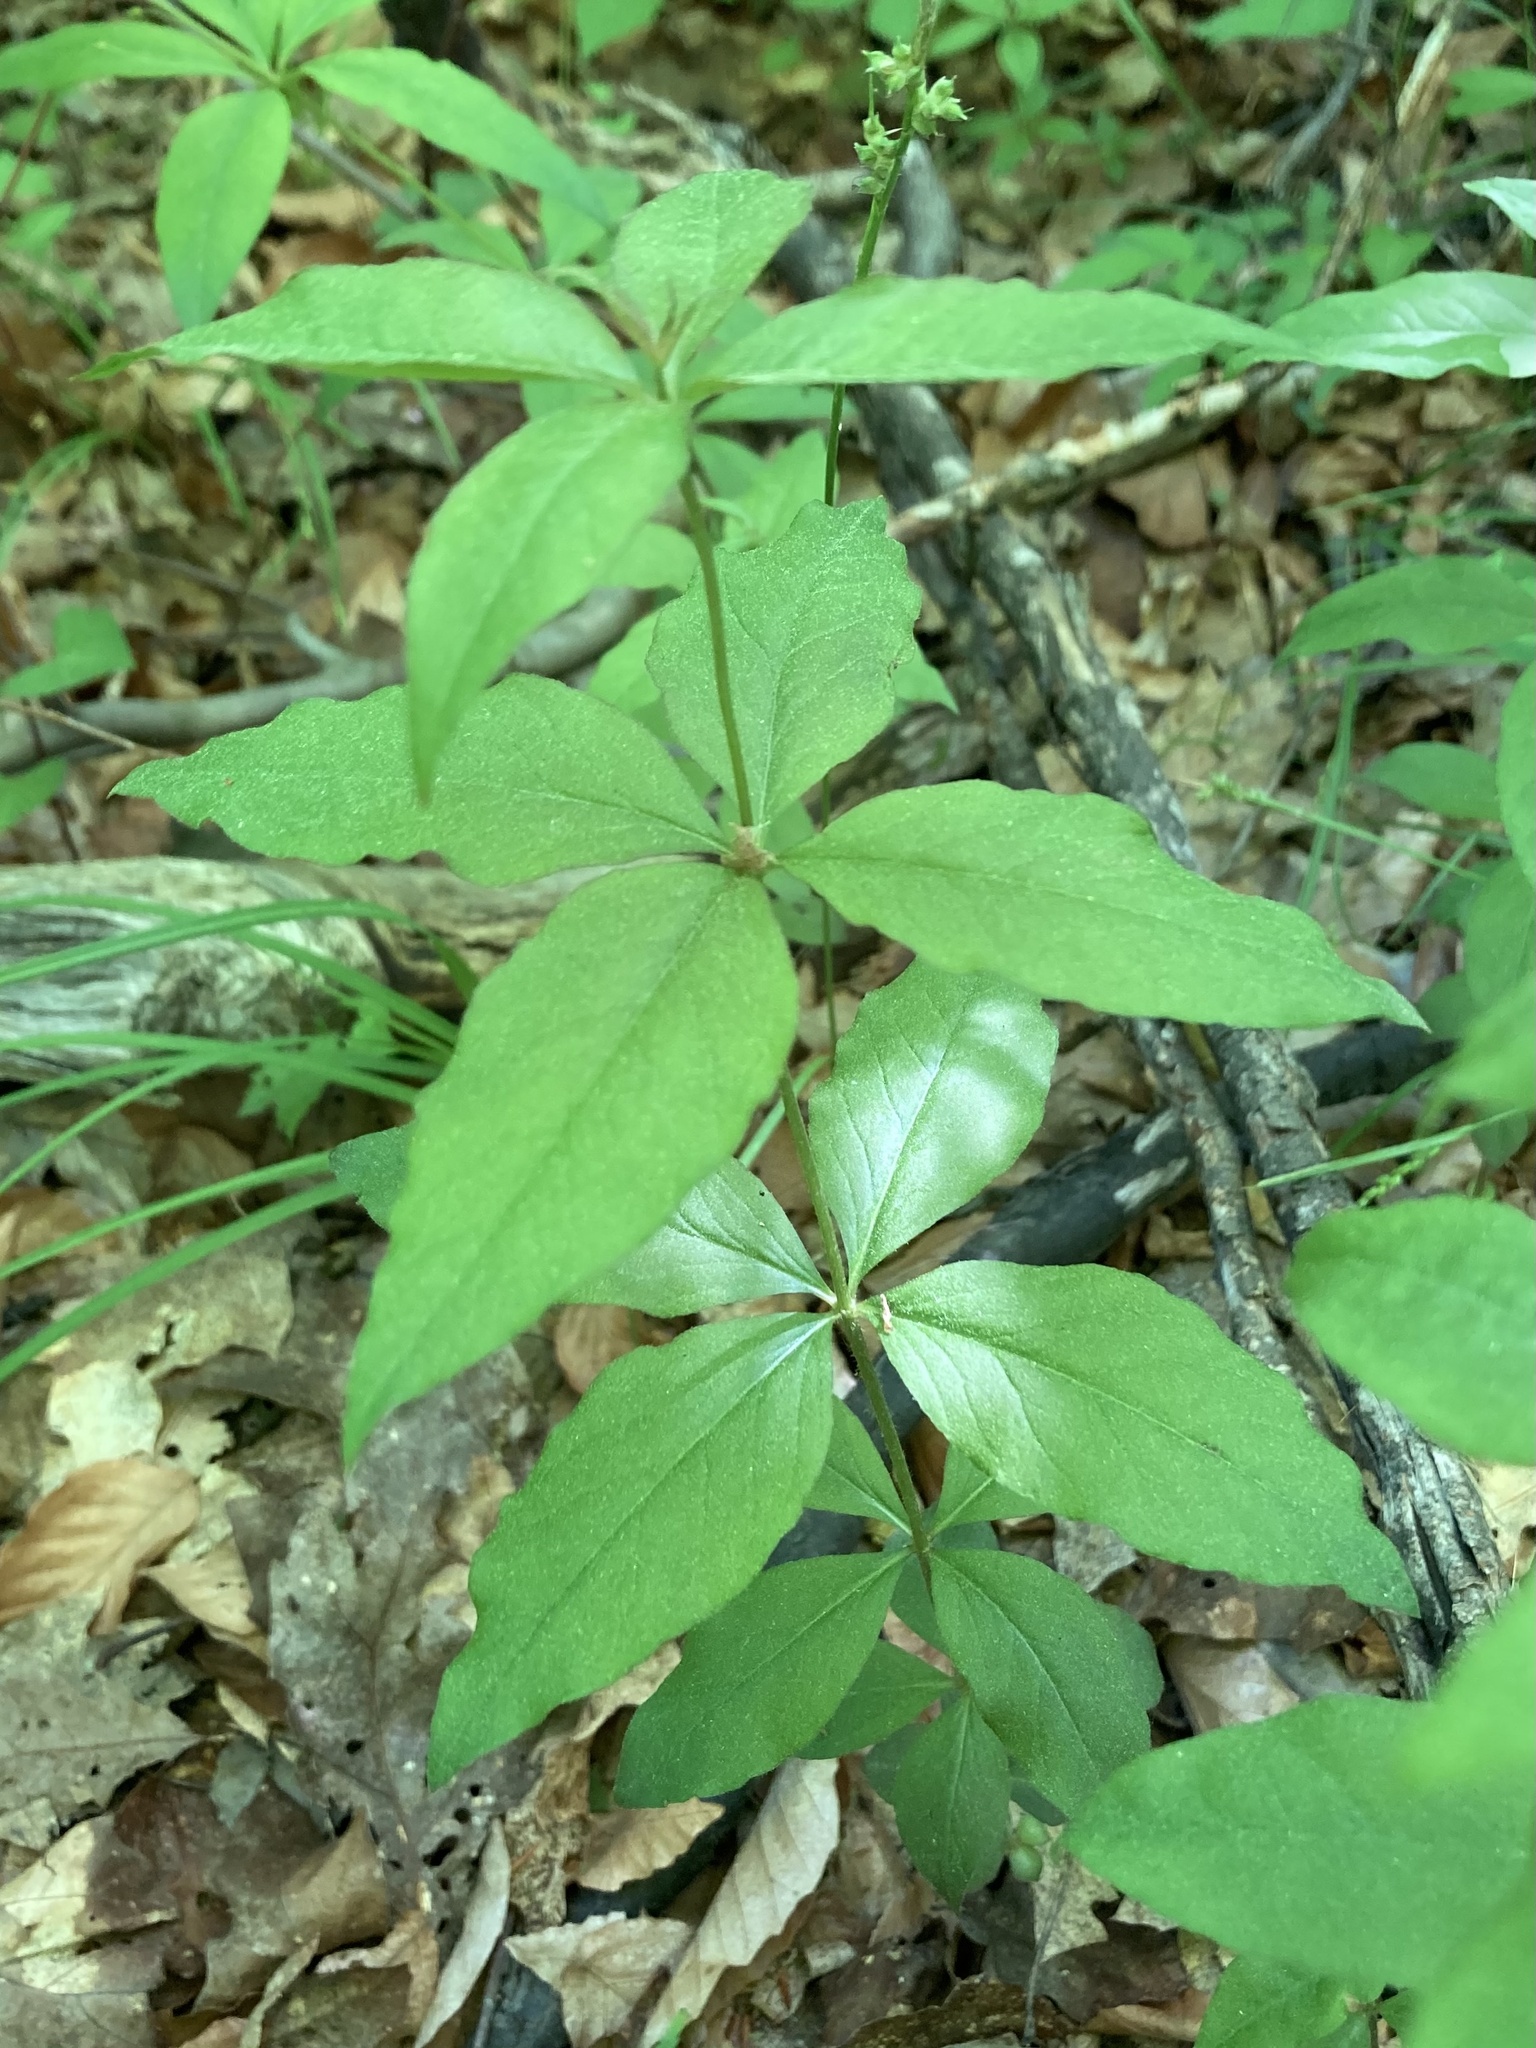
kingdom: Plantae
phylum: Tracheophyta
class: Magnoliopsida
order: Ericales
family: Primulaceae
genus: Lysimachia
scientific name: Lysimachia quadrifolia
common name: Whorled loosestrife
